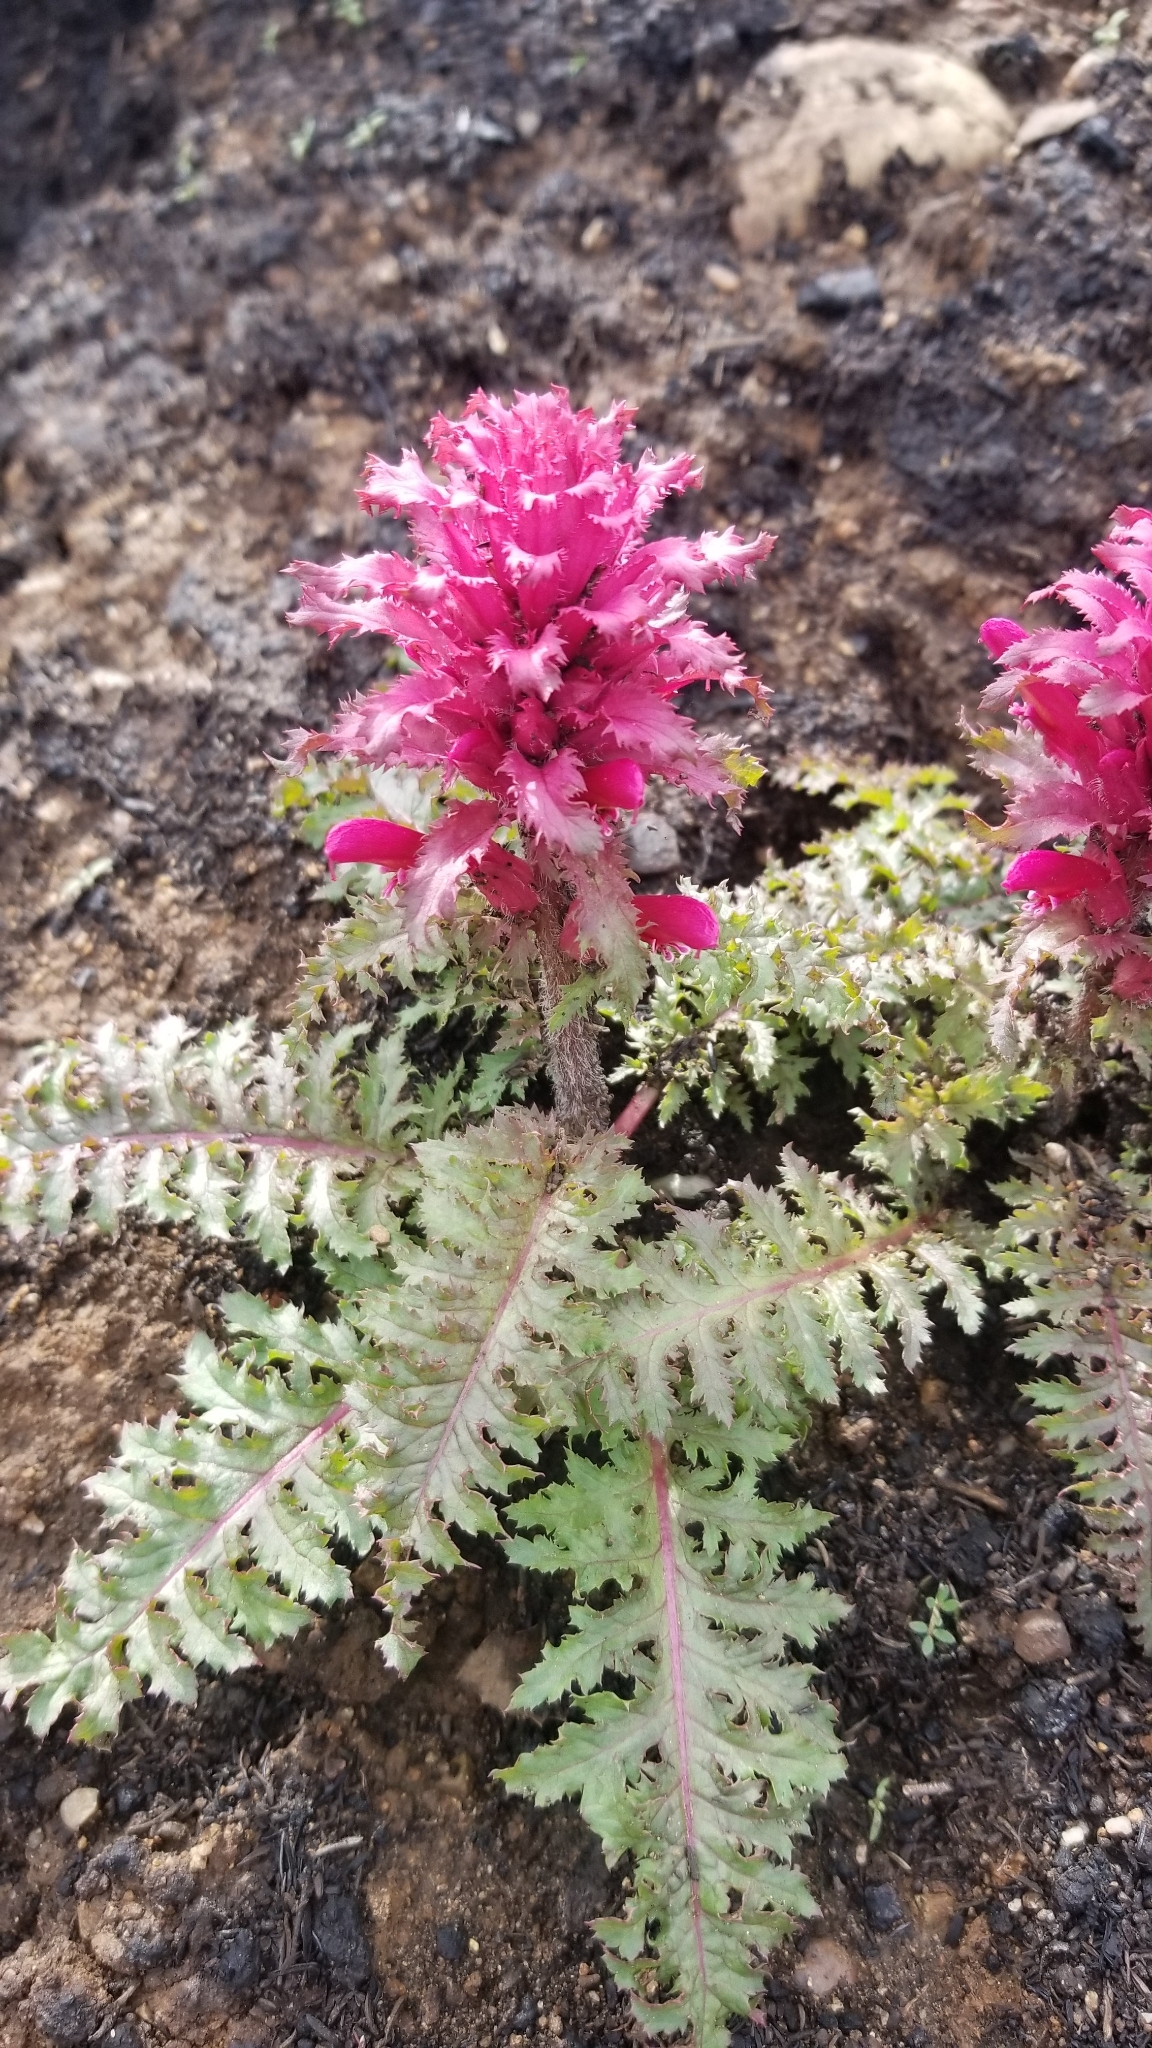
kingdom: Plantae
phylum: Tracheophyta
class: Magnoliopsida
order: Lamiales
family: Orobanchaceae
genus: Pedicularis
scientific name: Pedicularis densiflora
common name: Indian warrior
